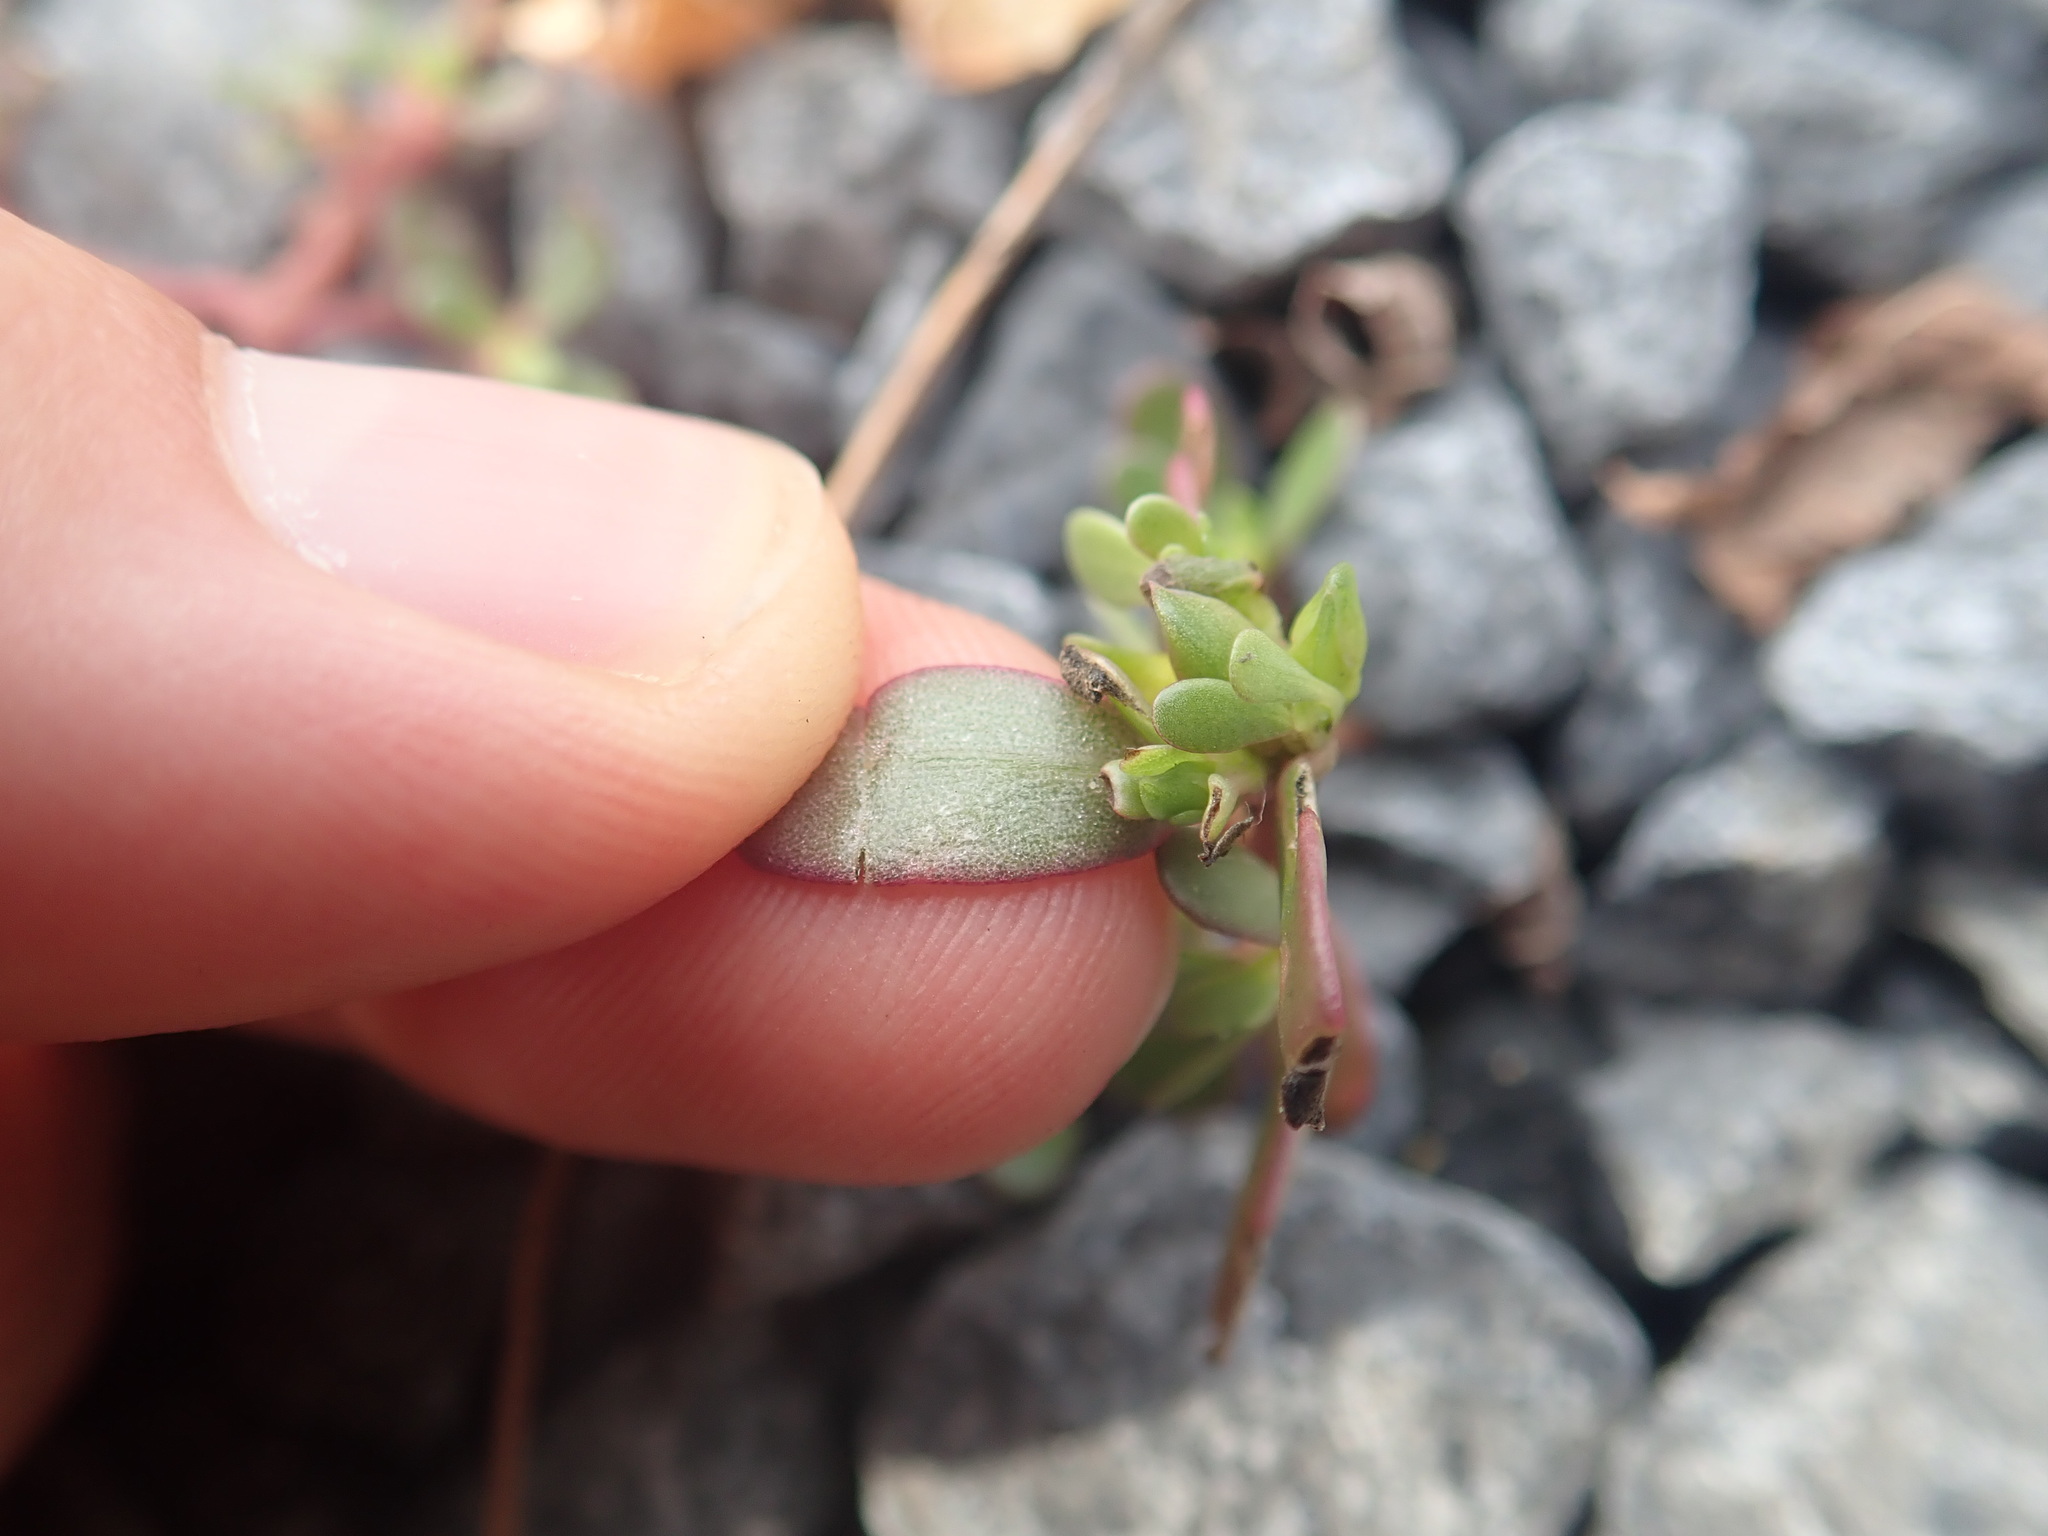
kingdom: Plantae
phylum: Tracheophyta
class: Magnoliopsida
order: Caryophyllales
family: Portulacaceae
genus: Portulaca
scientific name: Portulaca oleracea
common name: Common purslane
